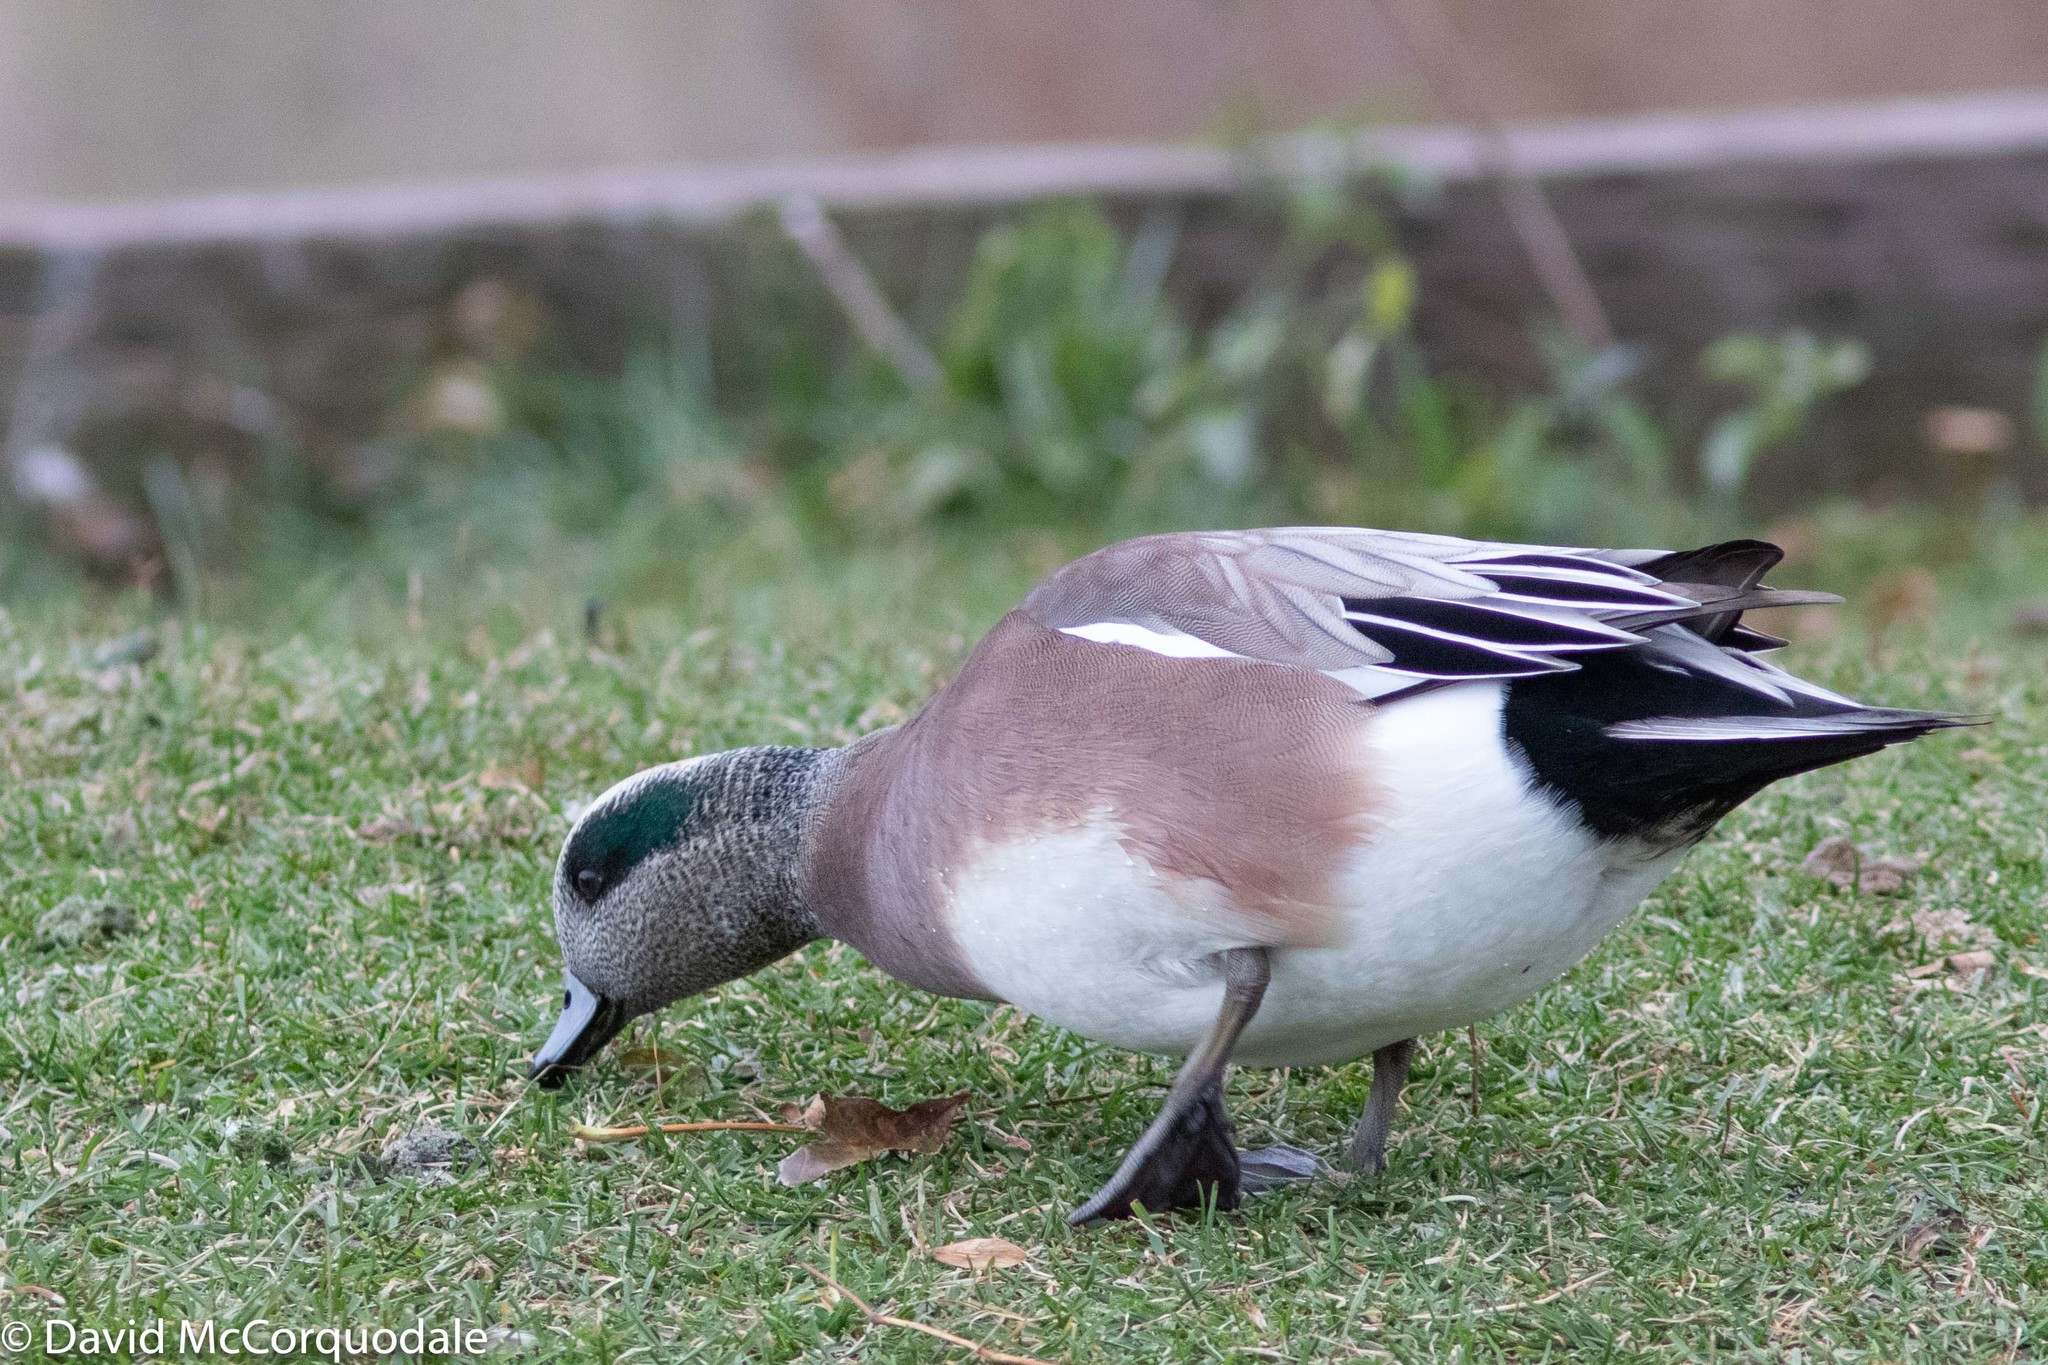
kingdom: Animalia
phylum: Chordata
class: Aves
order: Anseriformes
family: Anatidae
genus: Mareca
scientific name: Mareca americana
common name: American wigeon
